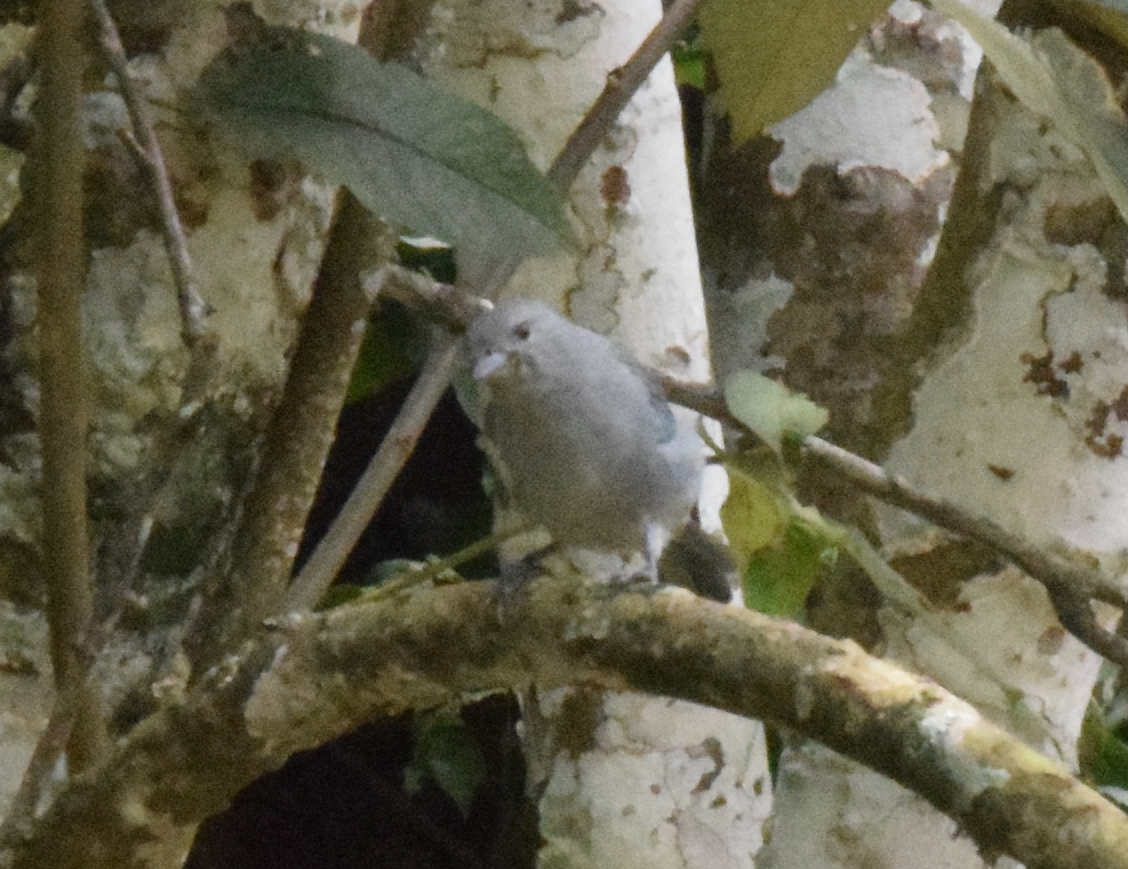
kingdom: Animalia
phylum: Chordata
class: Aves
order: Passeriformes
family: Thraupidae
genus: Thraupis
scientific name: Thraupis sayaca
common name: Sayaca tanager
